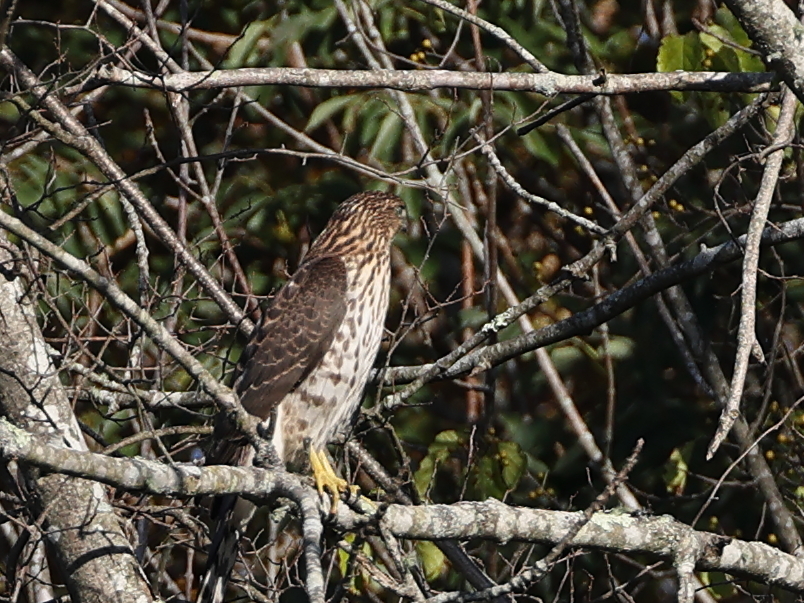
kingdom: Animalia
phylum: Chordata
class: Aves
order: Accipitriformes
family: Accipitridae
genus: Accipiter
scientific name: Accipiter cooperii
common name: Cooper's hawk
